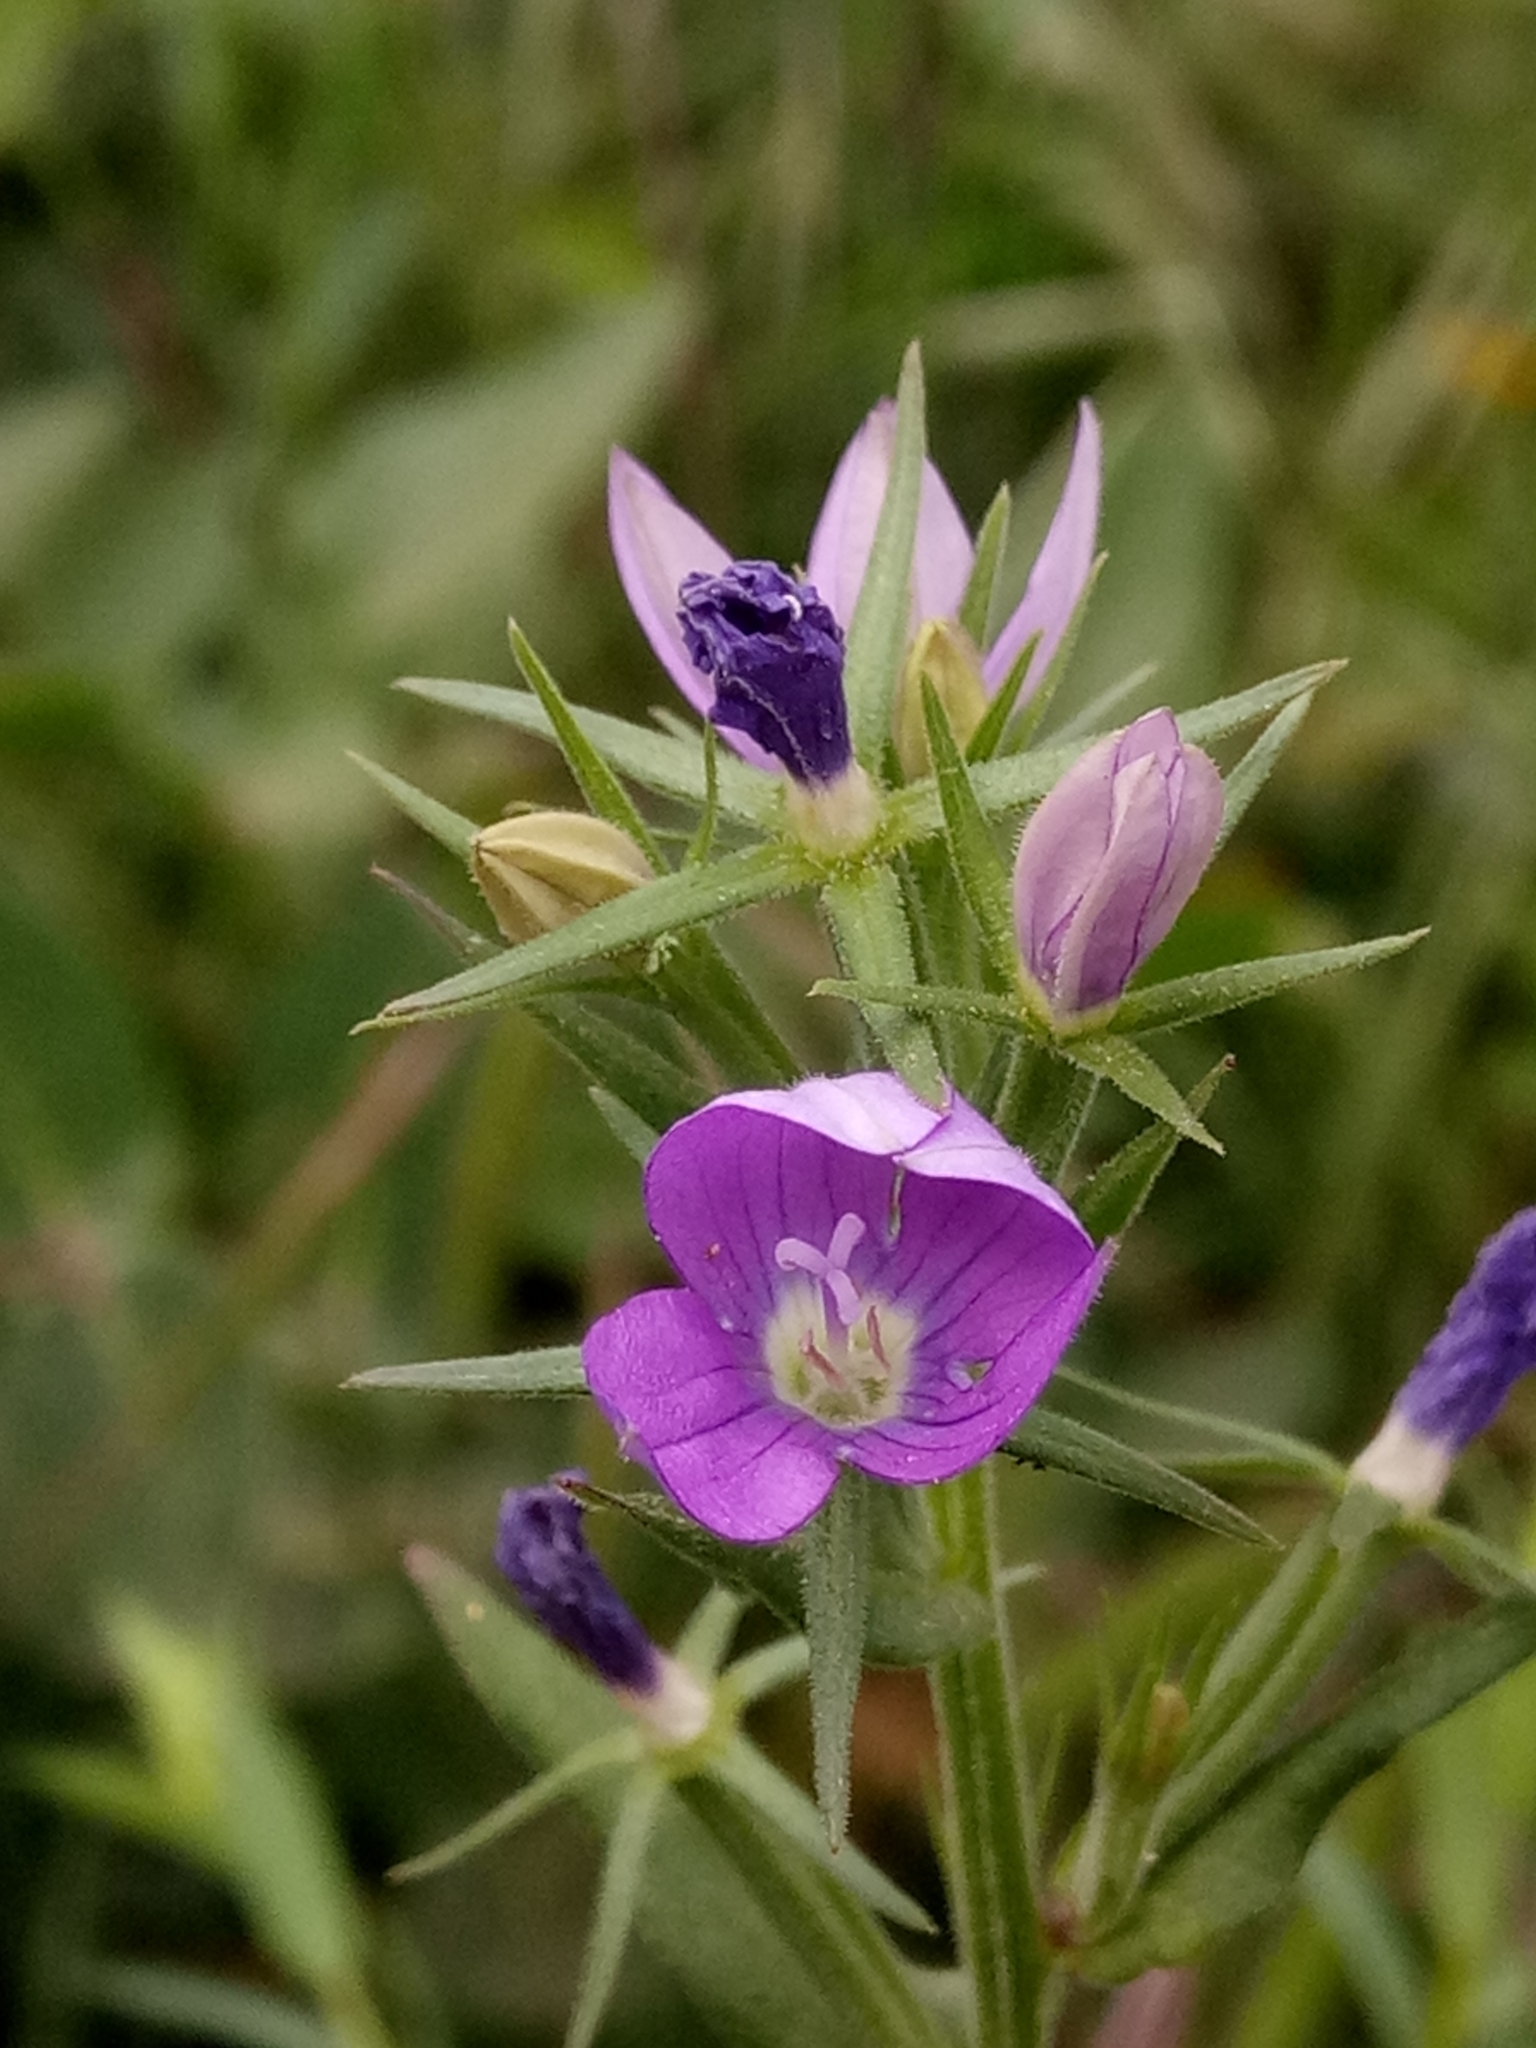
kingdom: Plantae
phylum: Tracheophyta
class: Magnoliopsida
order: Asterales
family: Campanulaceae
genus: Legousia
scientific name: Legousia falcata
